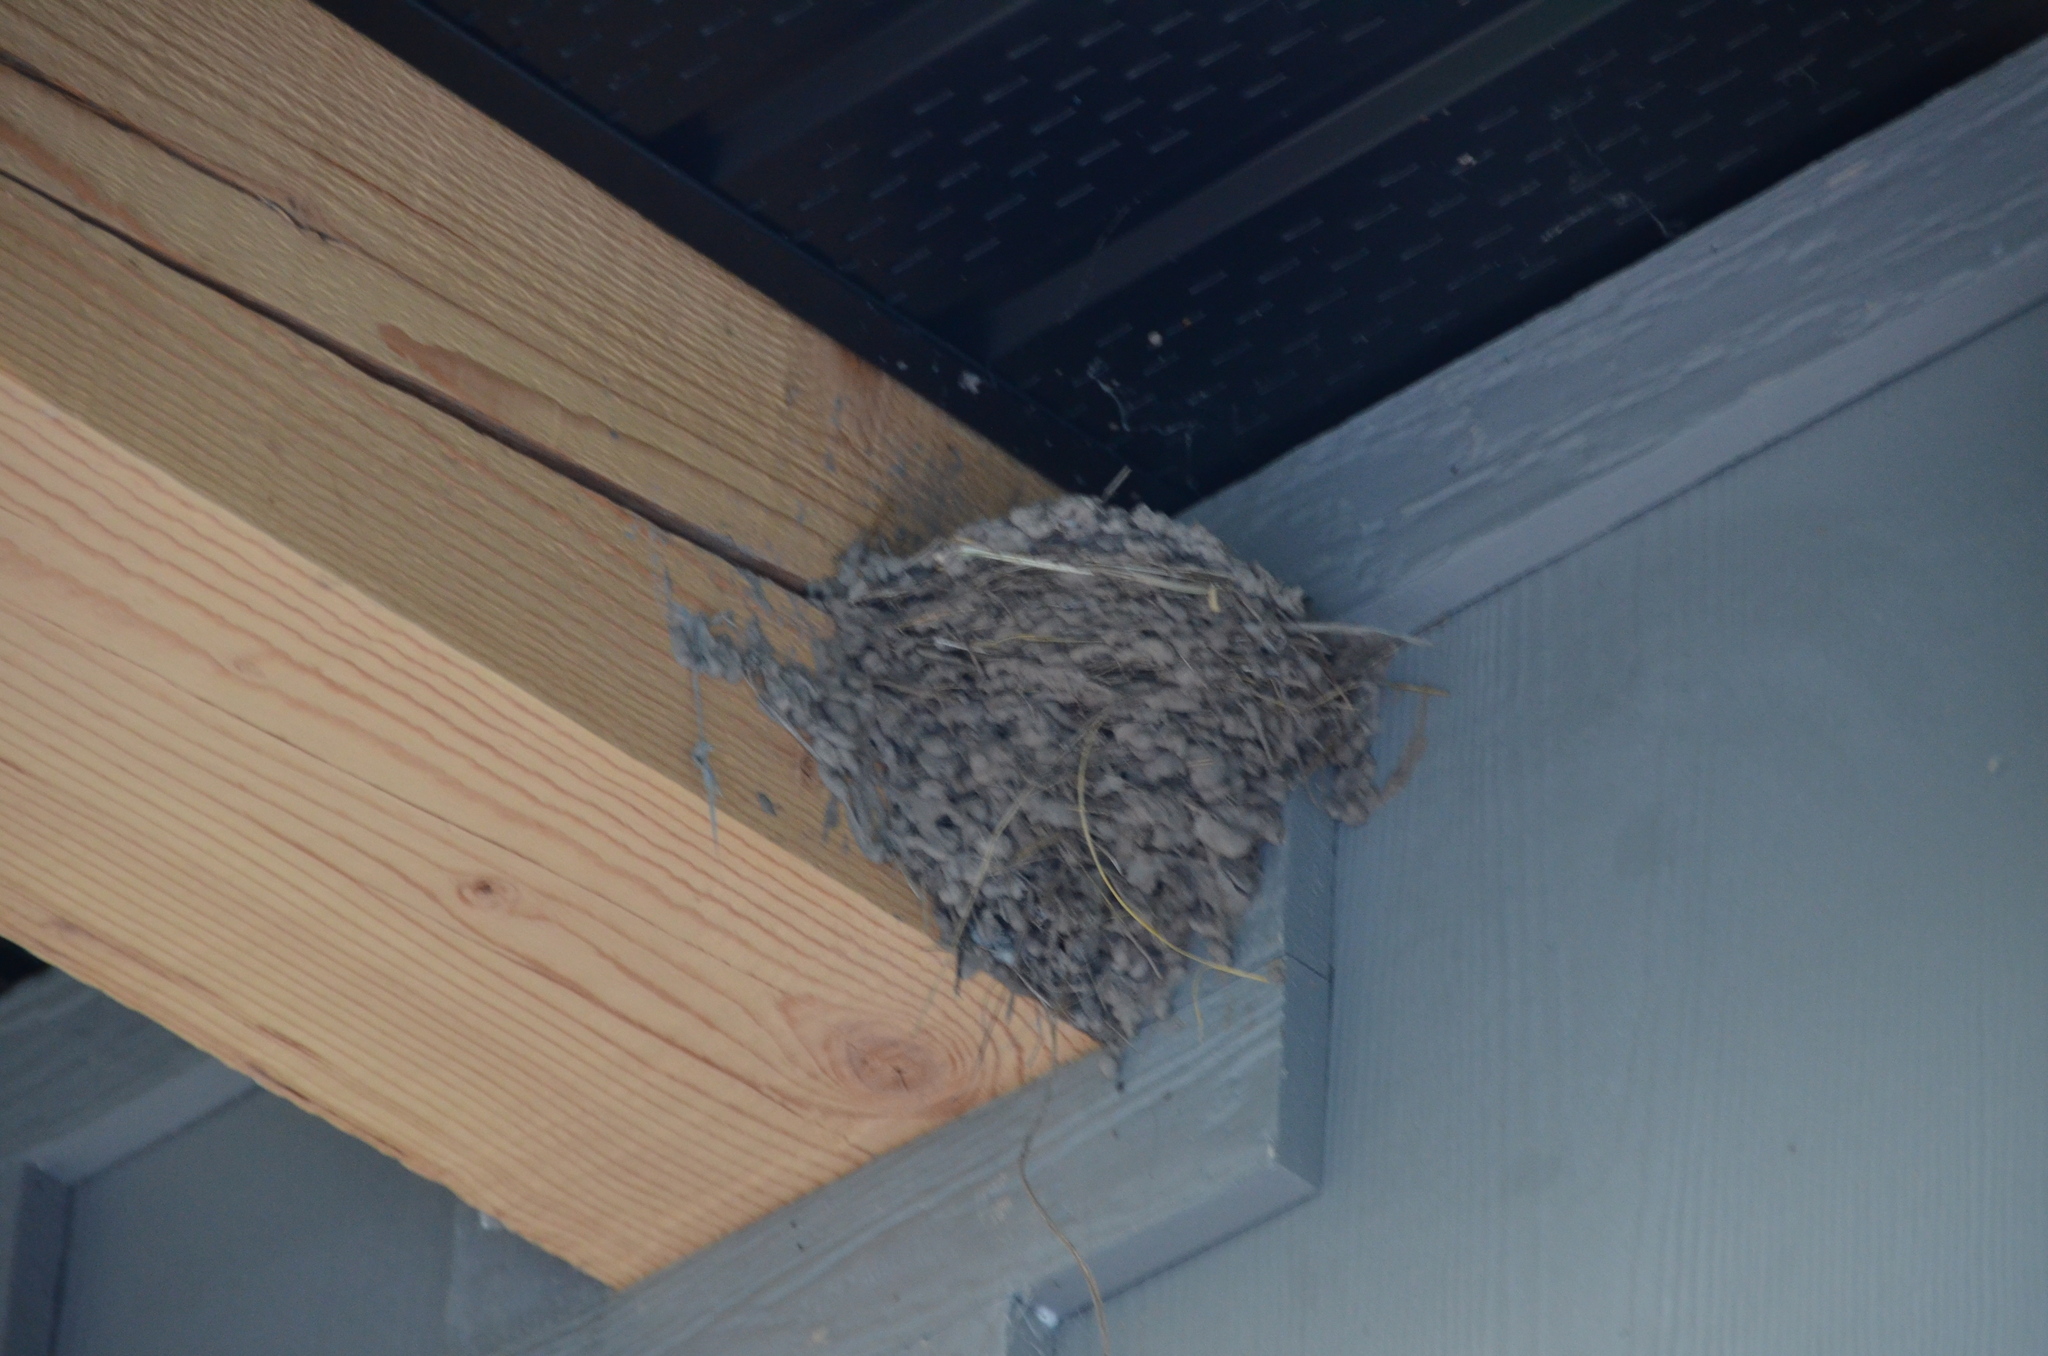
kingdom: Animalia
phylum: Chordata
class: Aves
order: Passeriformes
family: Hirundinidae
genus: Hirundo
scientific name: Hirundo rustica
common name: Barn swallow
